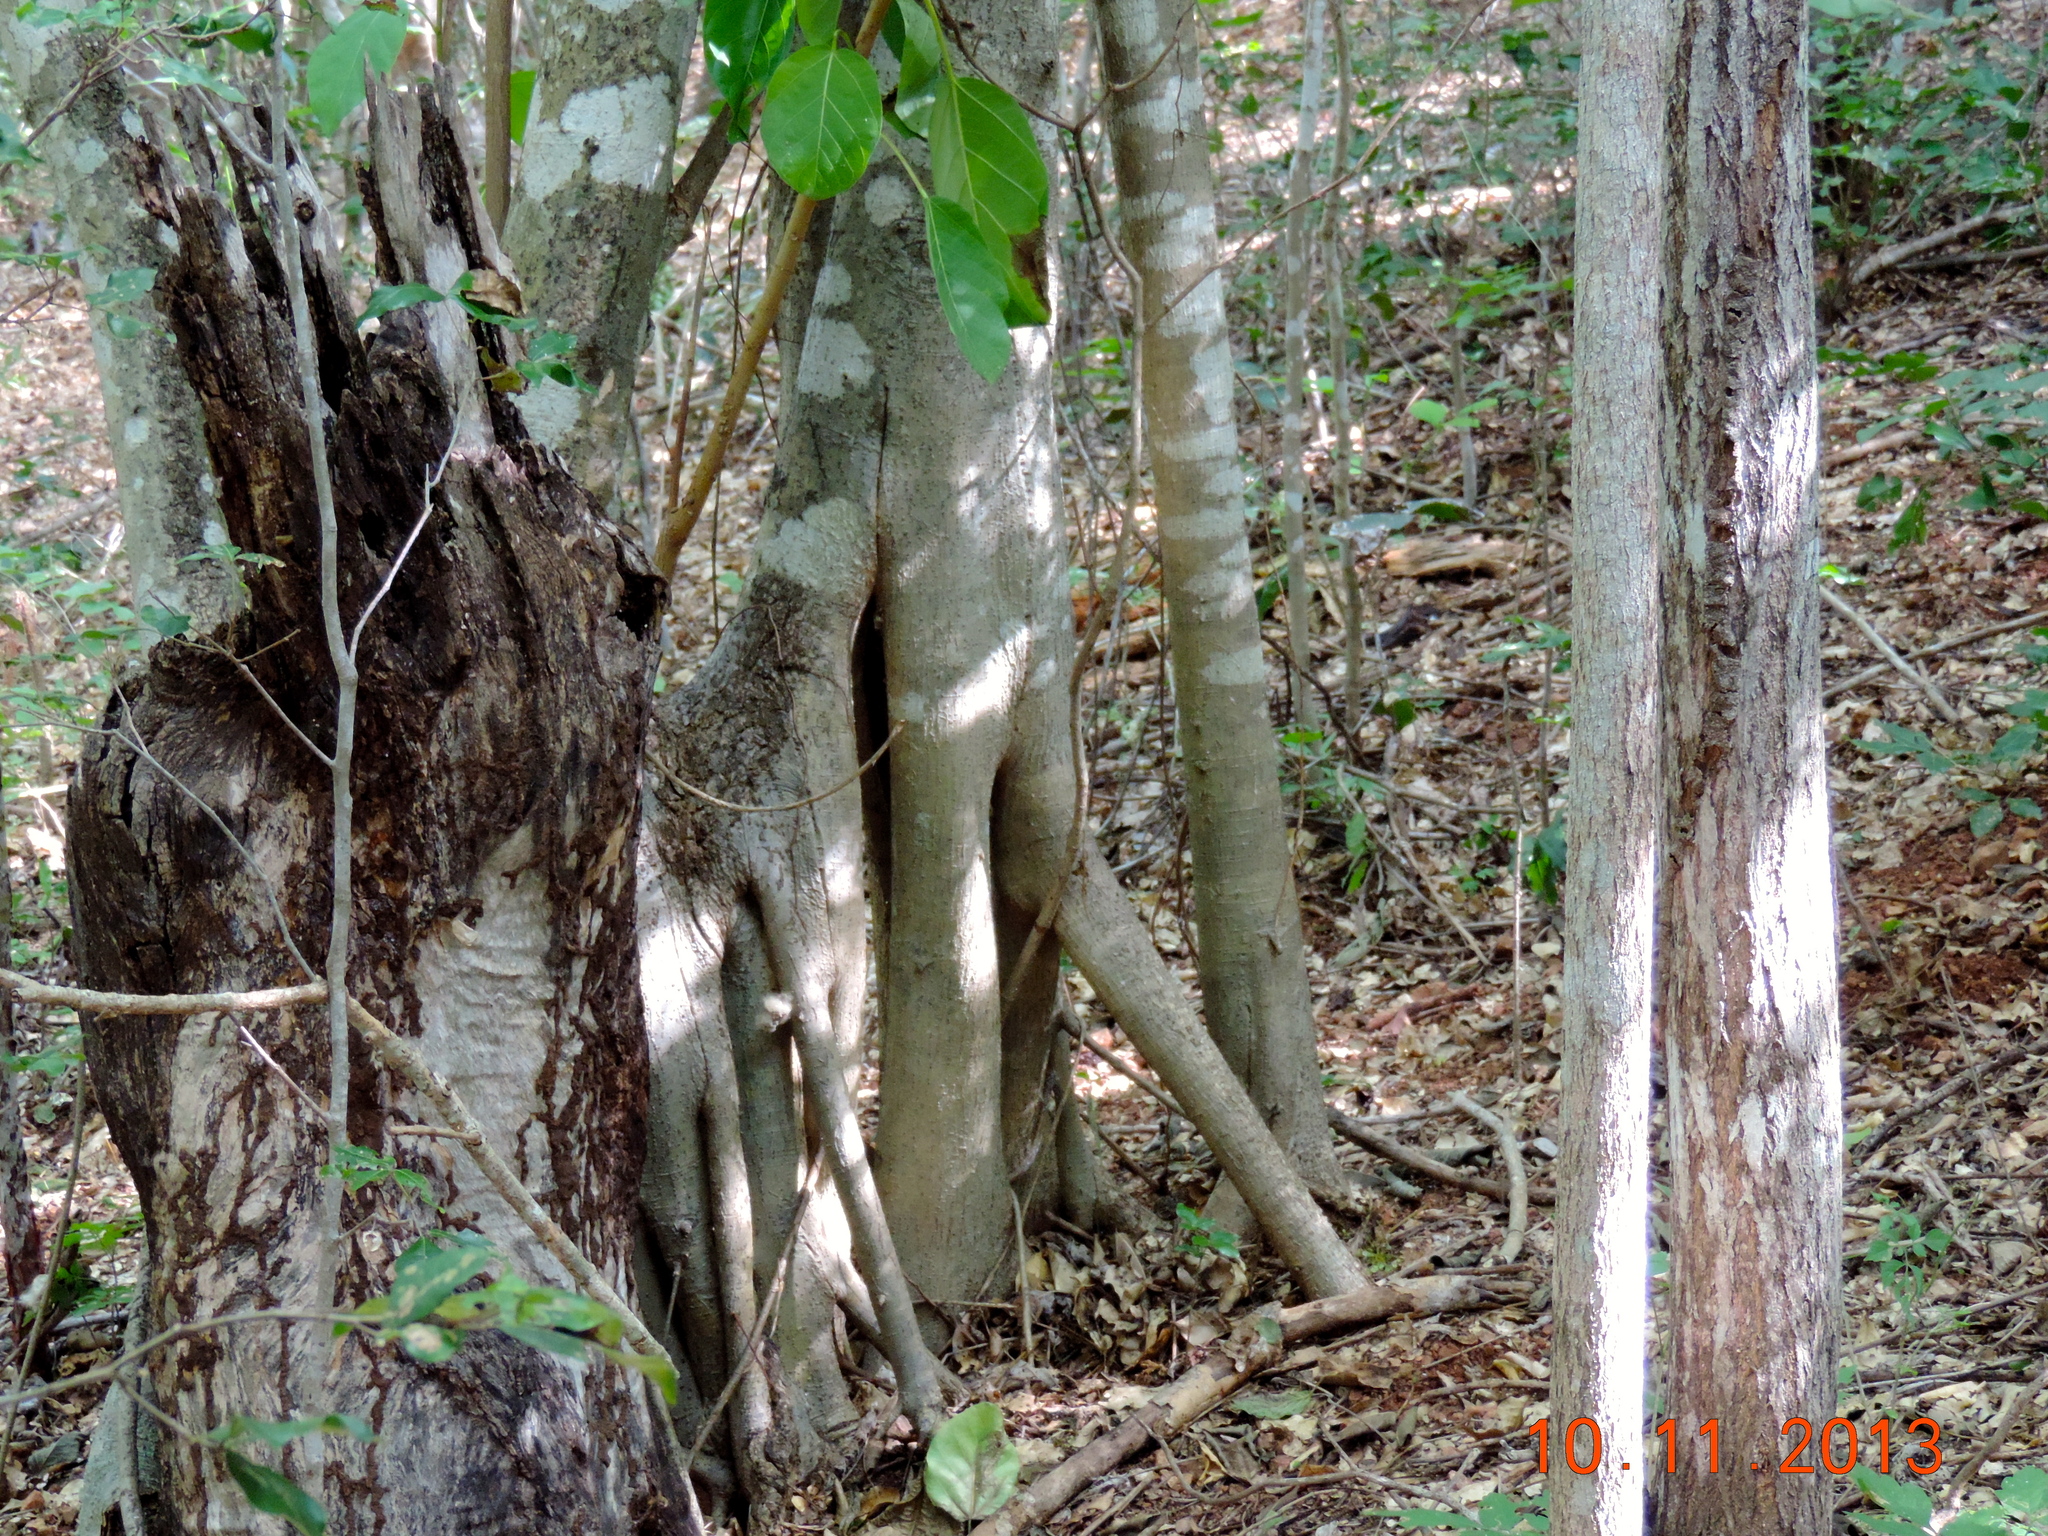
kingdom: Plantae
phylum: Tracheophyta
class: Magnoliopsida
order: Rosales
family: Moraceae
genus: Ficus
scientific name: Ficus cotinifolia
